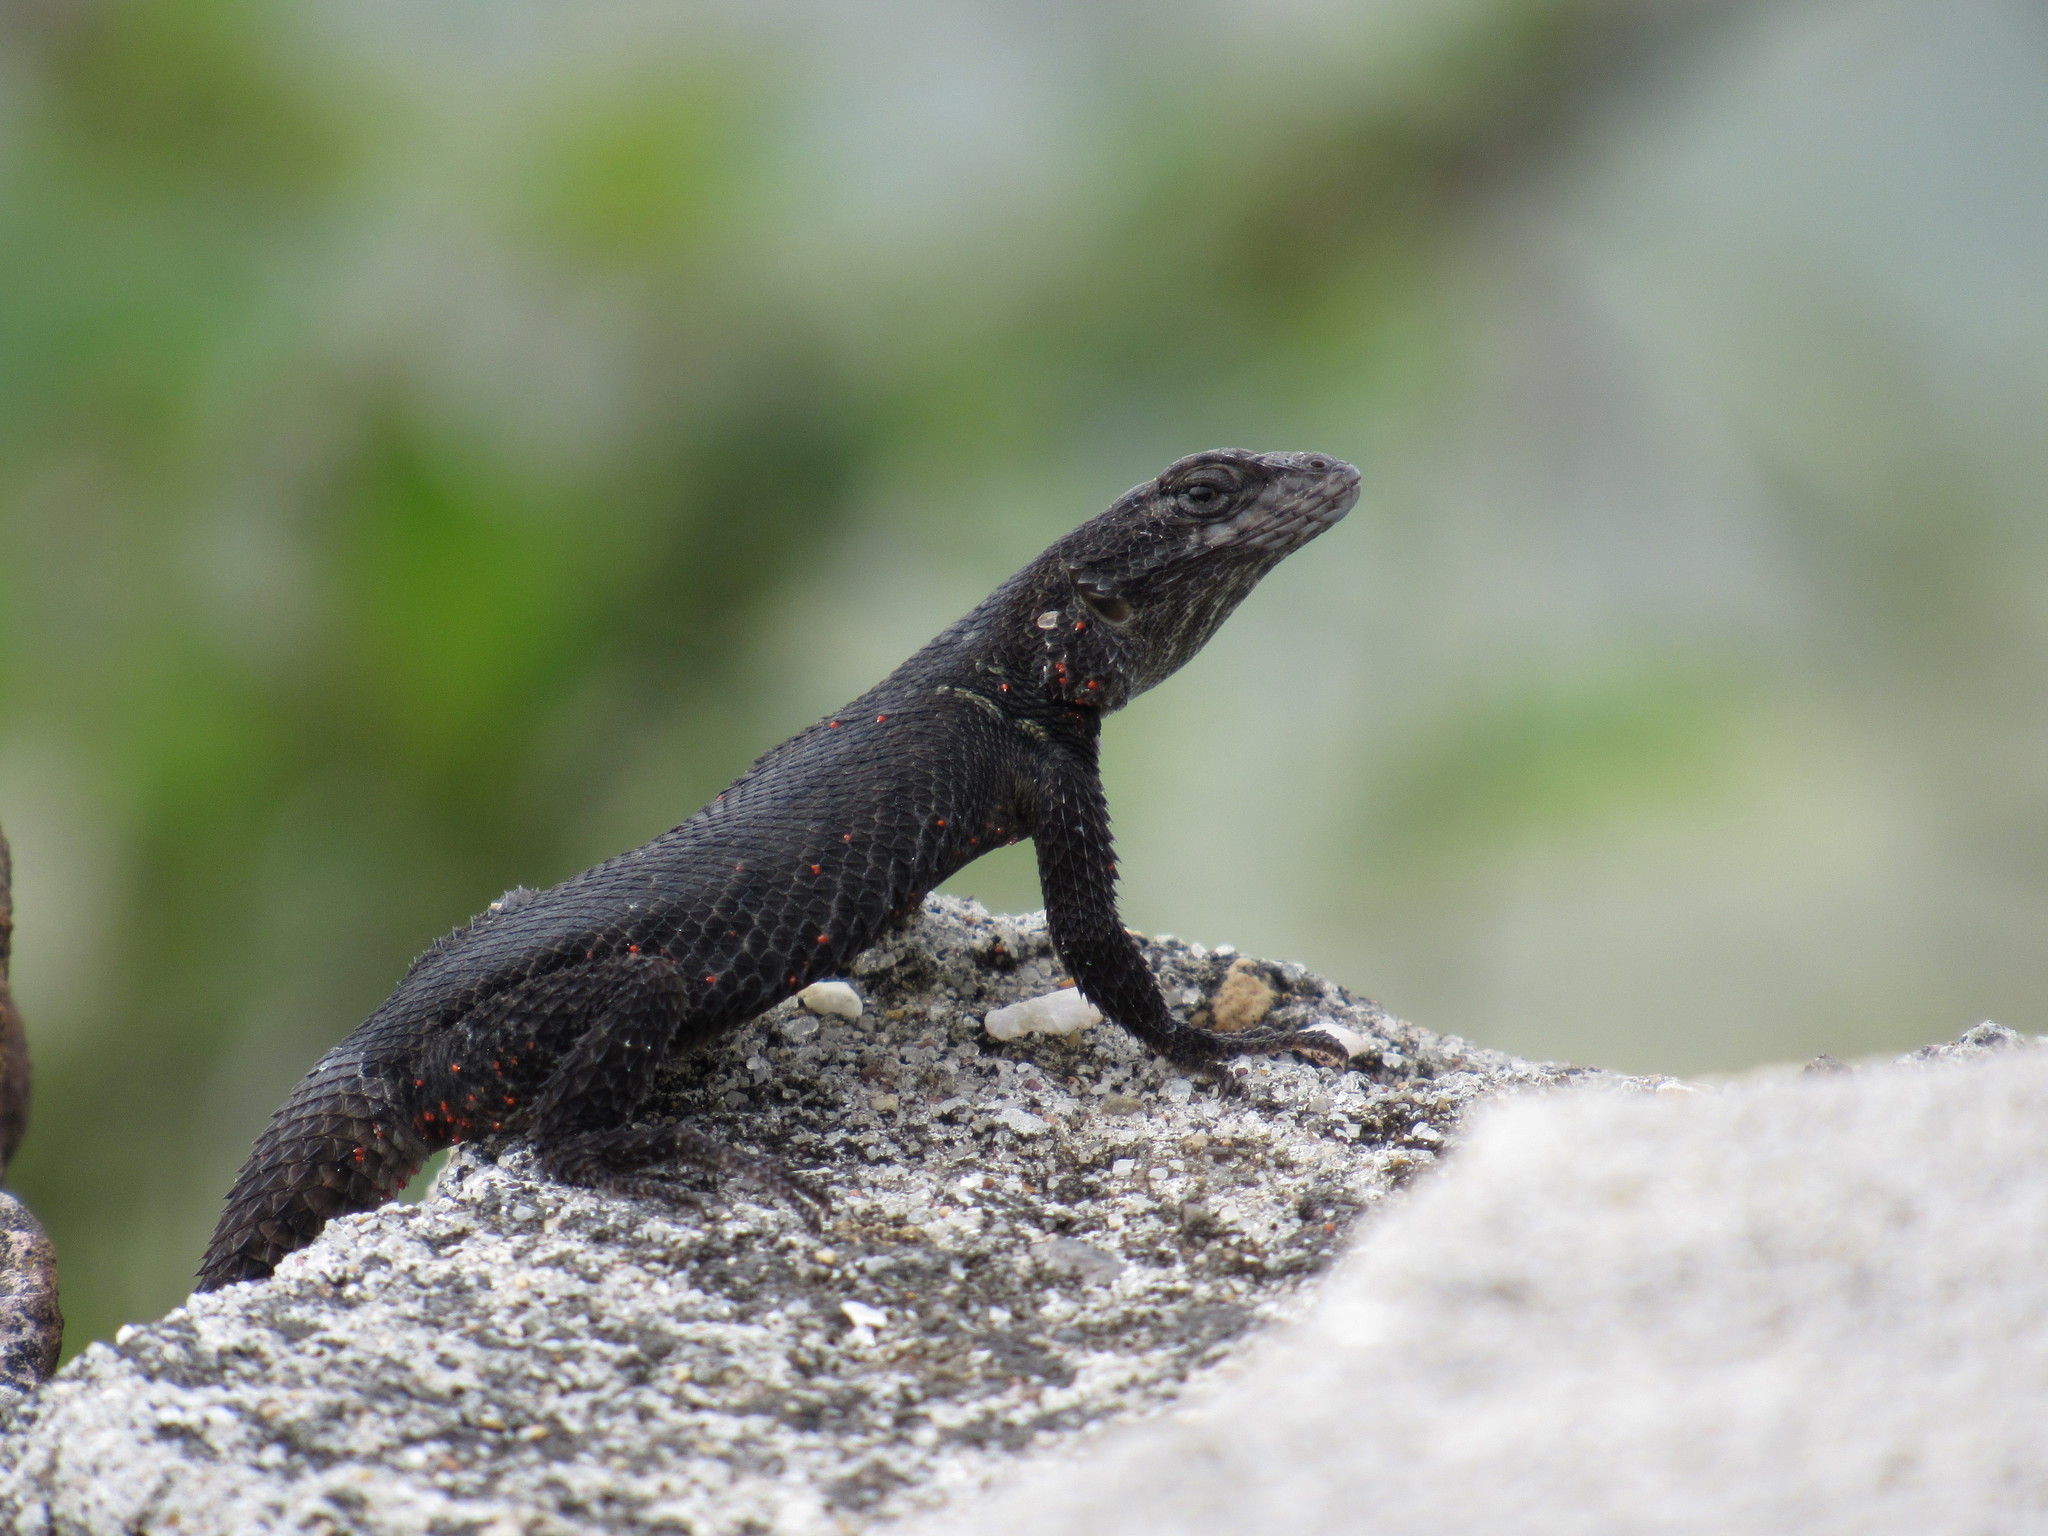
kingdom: Animalia
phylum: Chordata
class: Squamata
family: Phrynosomatidae
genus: Sceloporus
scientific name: Sceloporus dugesii
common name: Duges' spiny lizard
